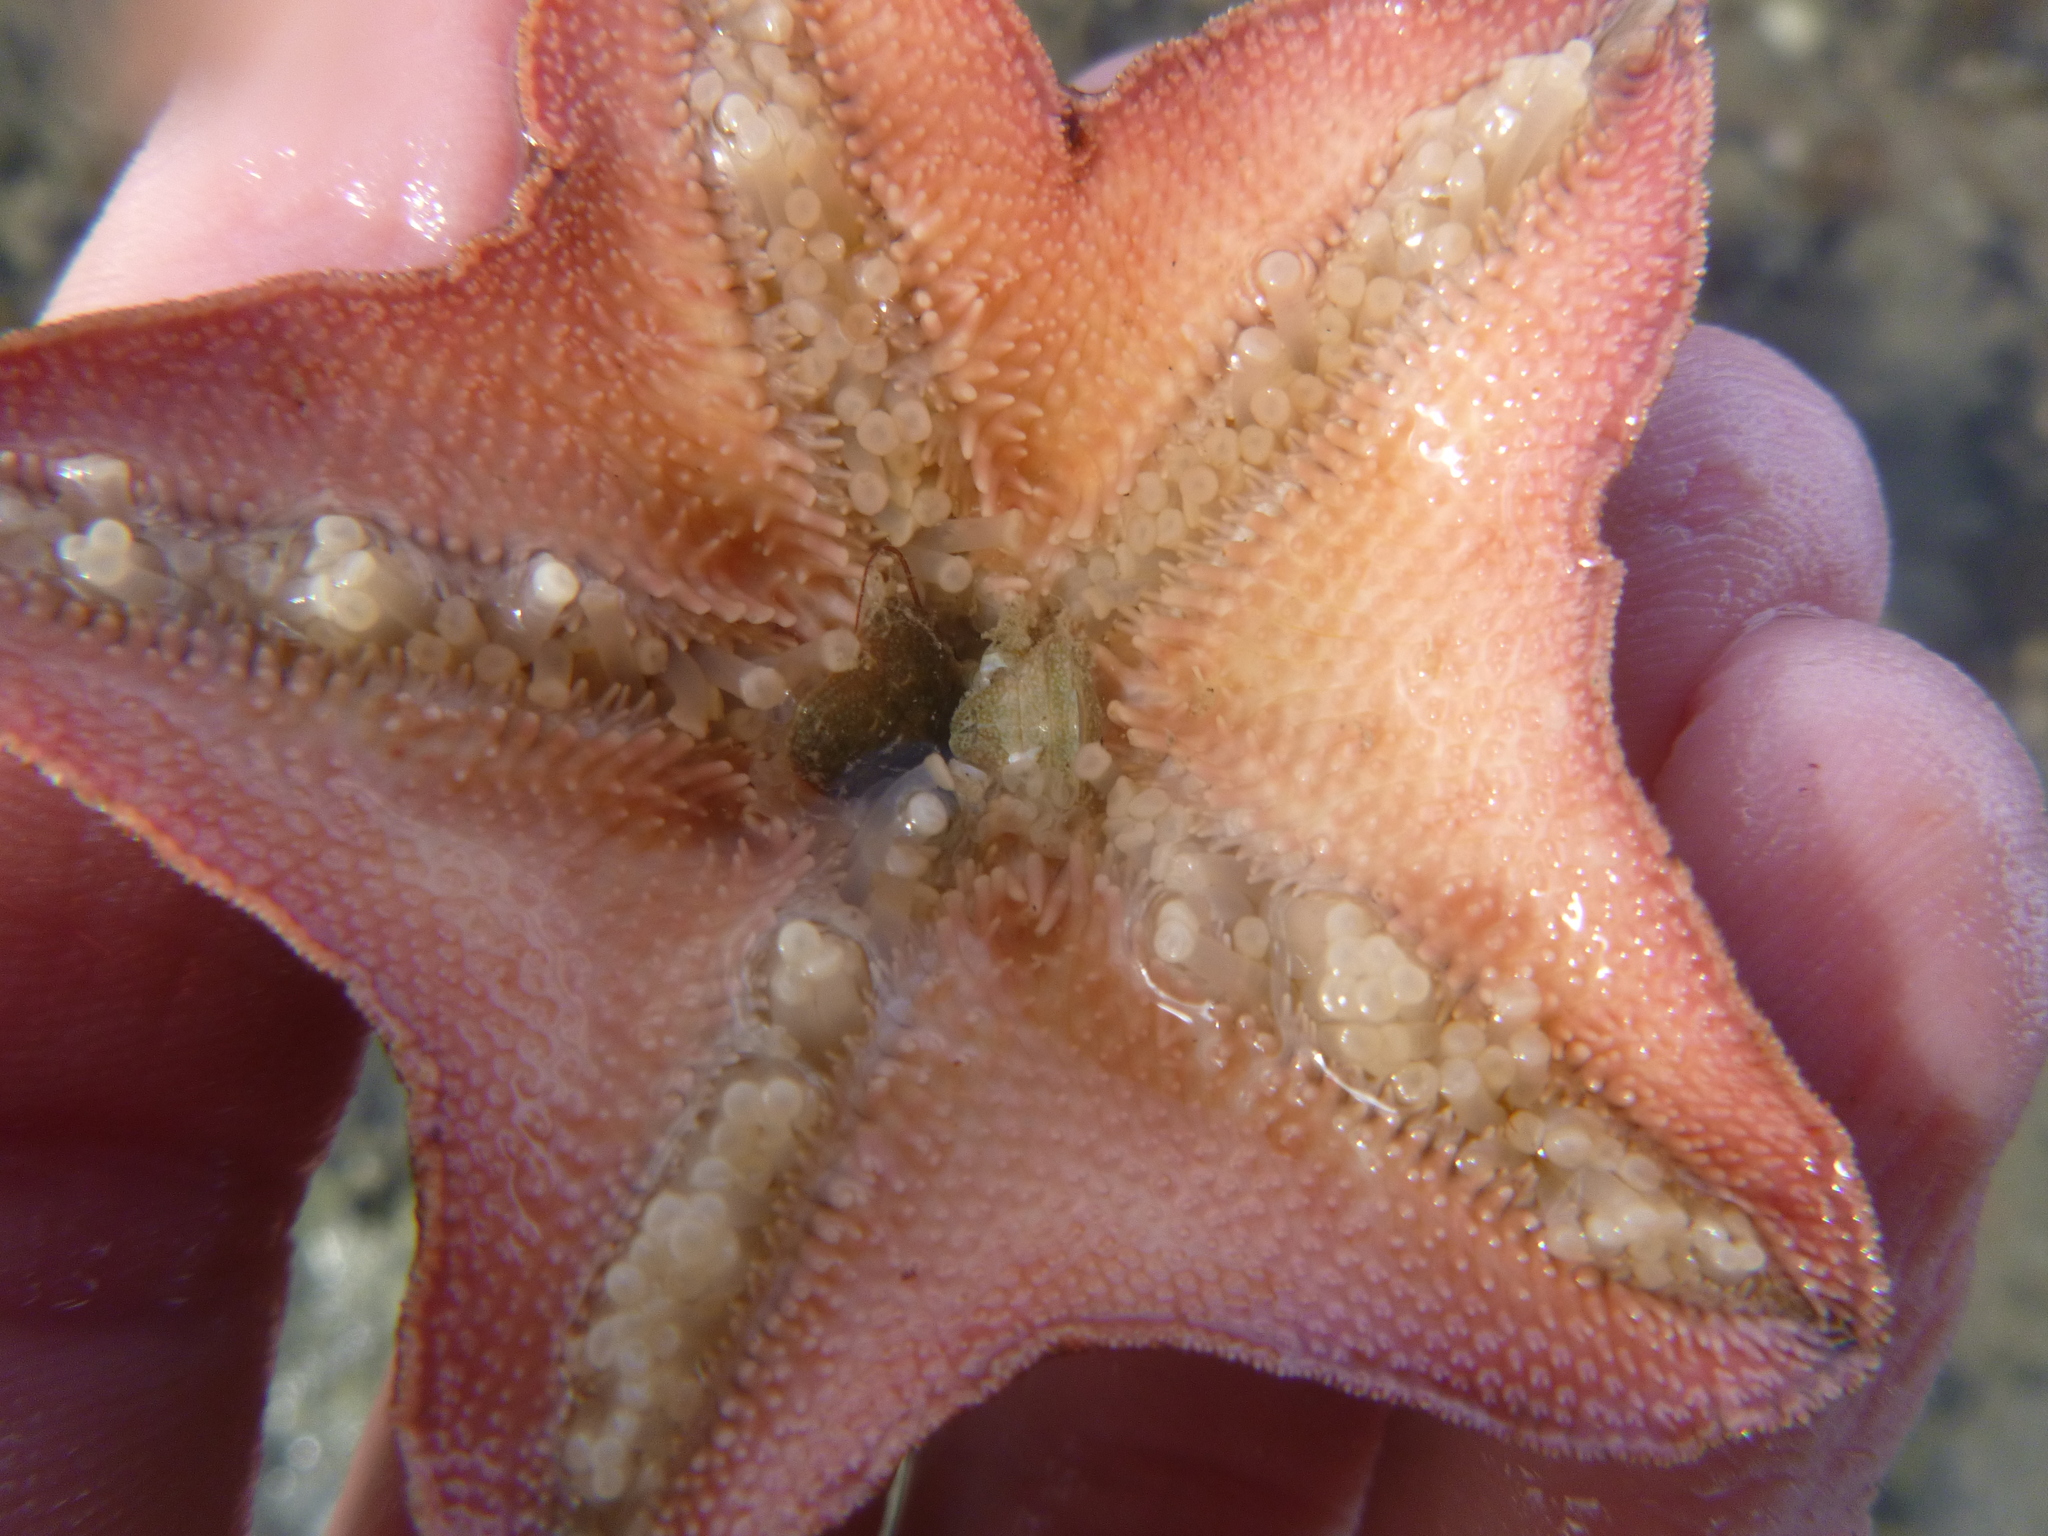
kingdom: Animalia
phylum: Echinodermata
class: Asteroidea
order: Valvatida
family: Asterinidae
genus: Patiriella
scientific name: Patiriella regularis
